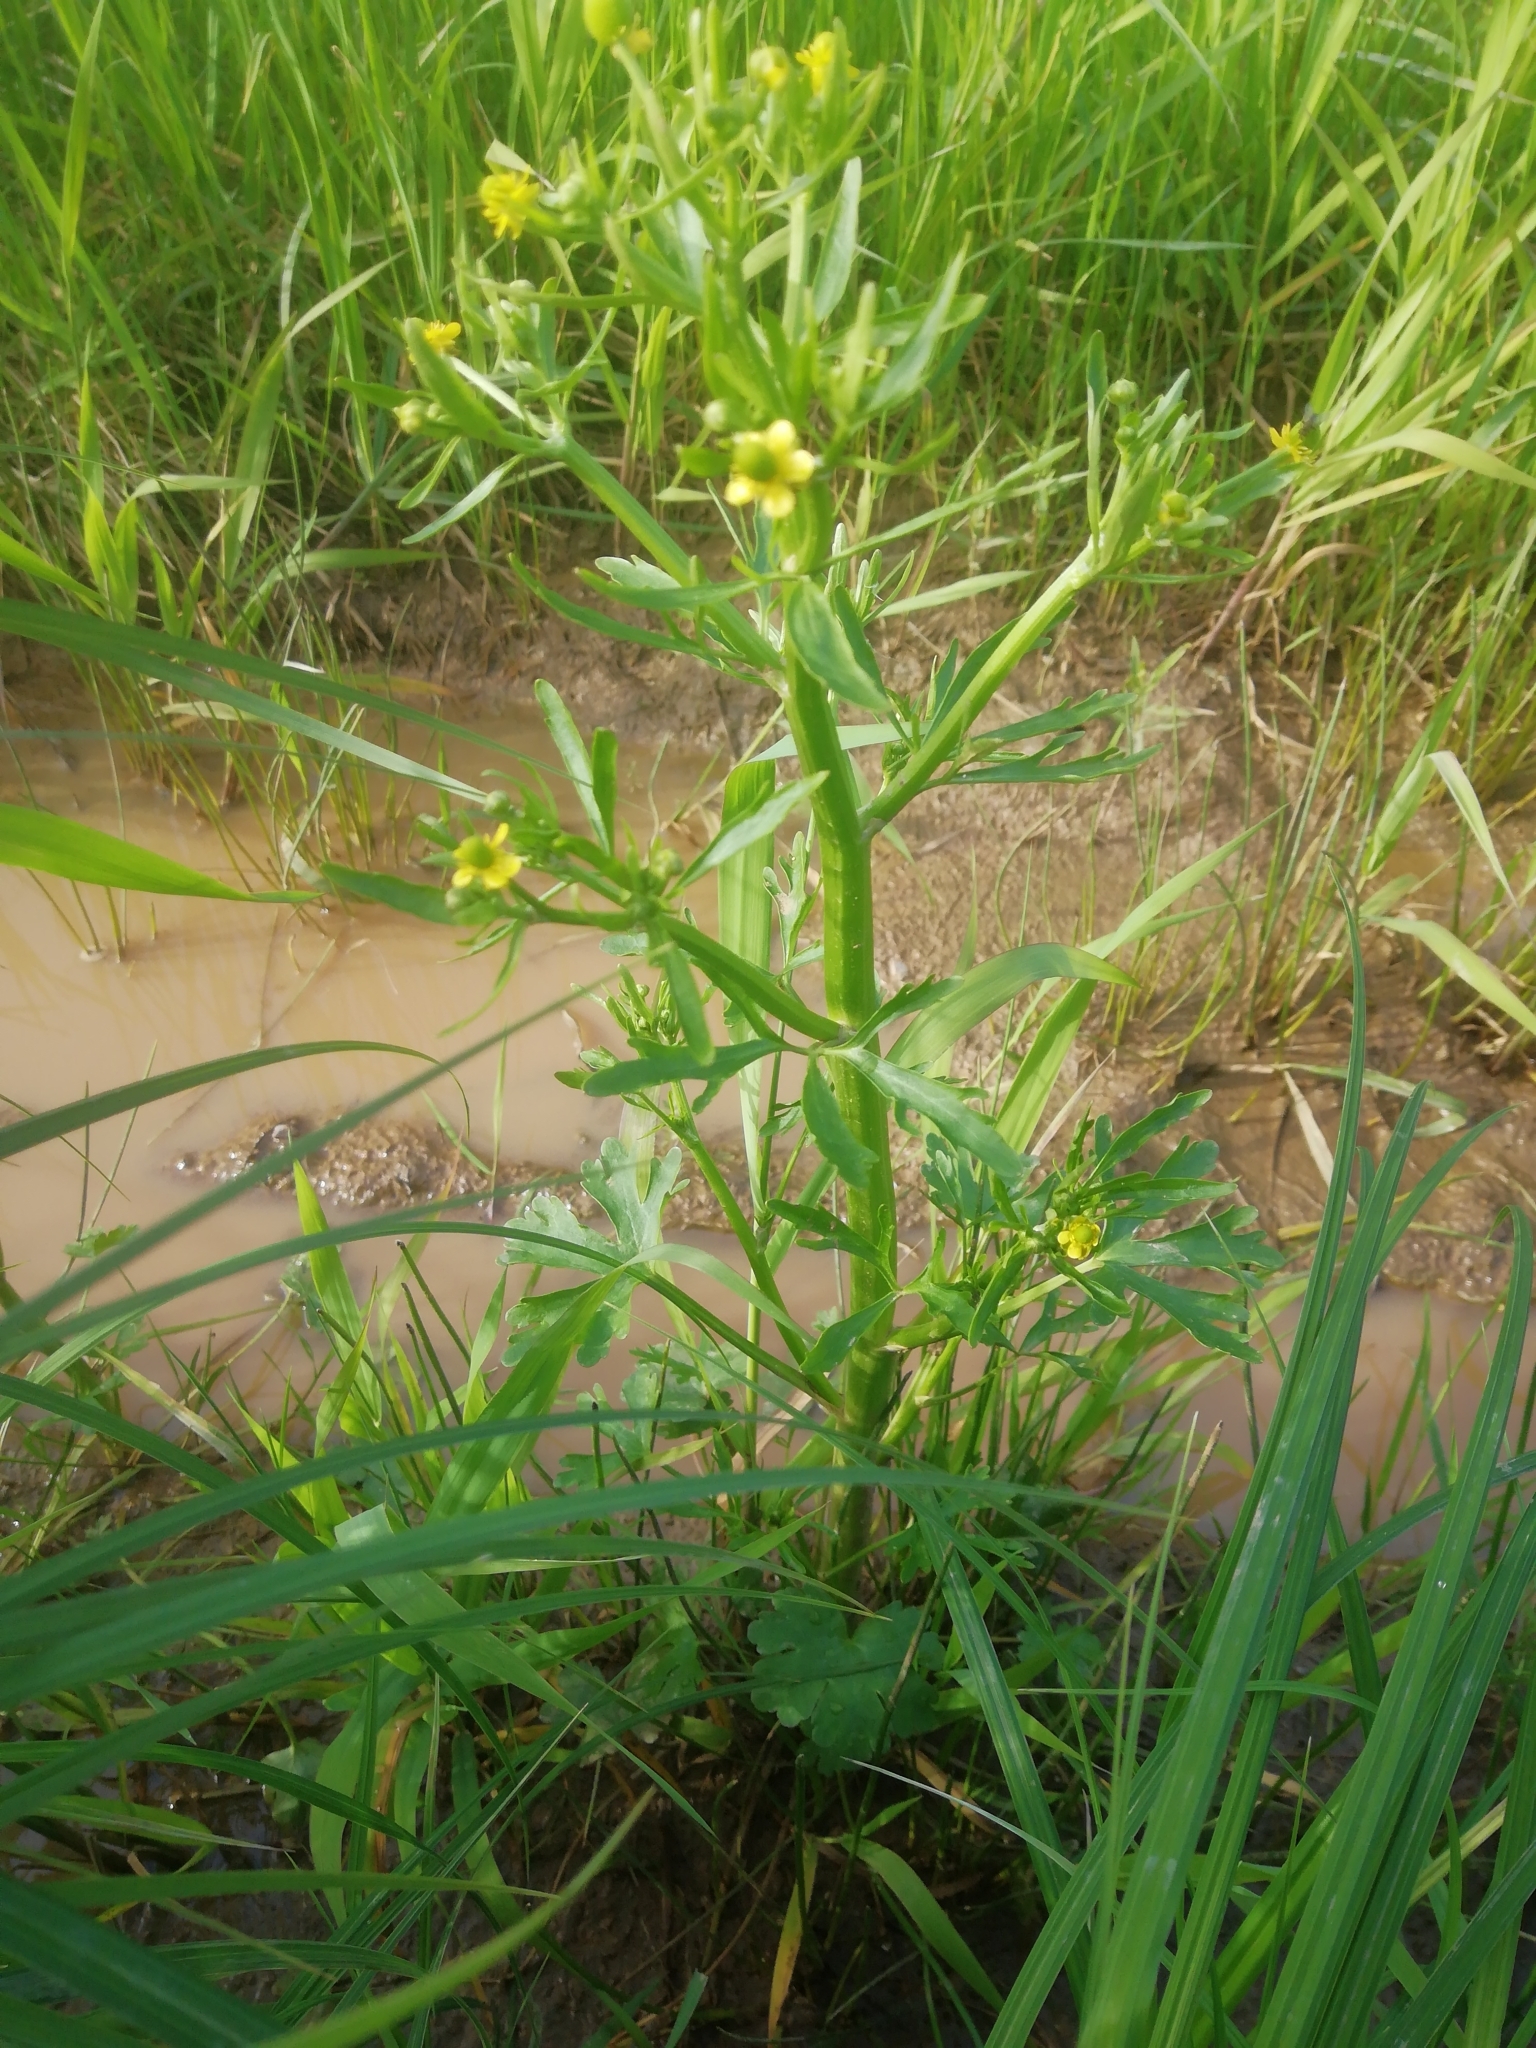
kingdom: Plantae
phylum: Tracheophyta
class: Magnoliopsida
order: Ranunculales
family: Ranunculaceae
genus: Ranunculus
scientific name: Ranunculus sceleratus
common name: Celery-leaved buttercup
